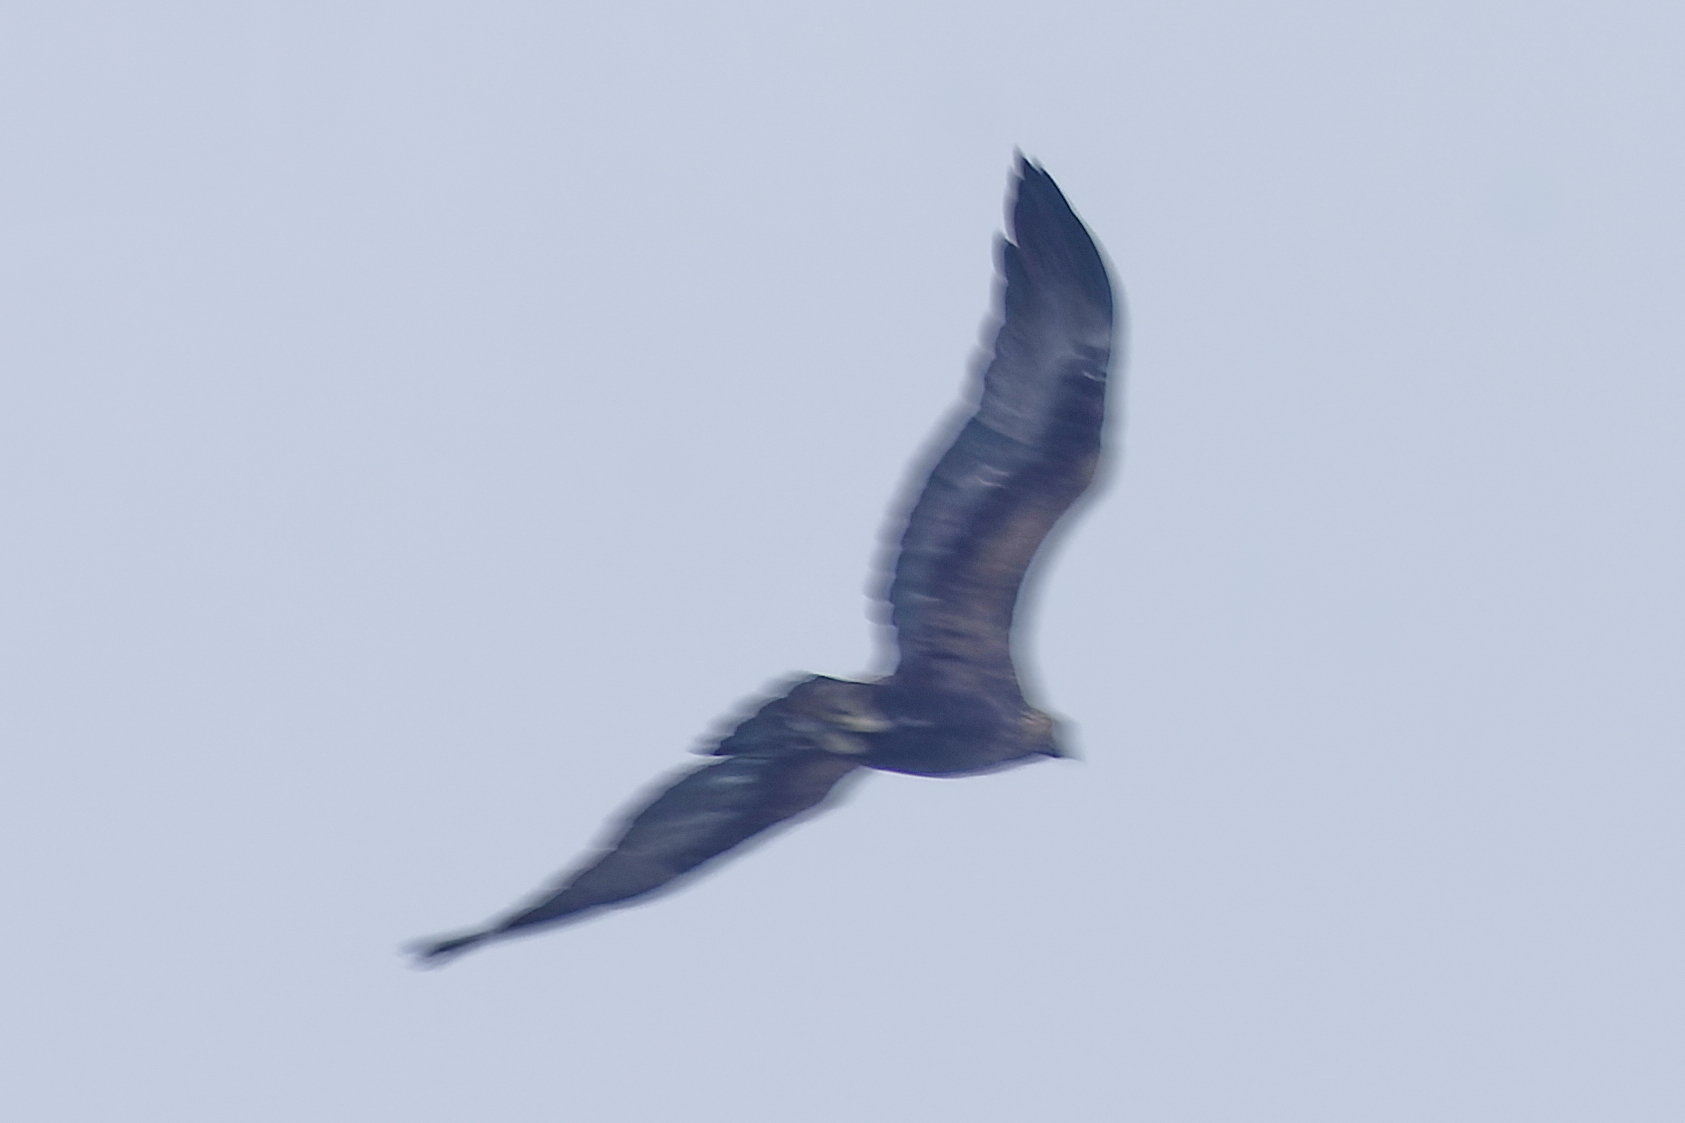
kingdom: Animalia
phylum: Chordata
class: Aves
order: Accipitriformes
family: Accipitridae
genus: Aquila
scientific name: Aquila chrysaetos
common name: Golden eagle
